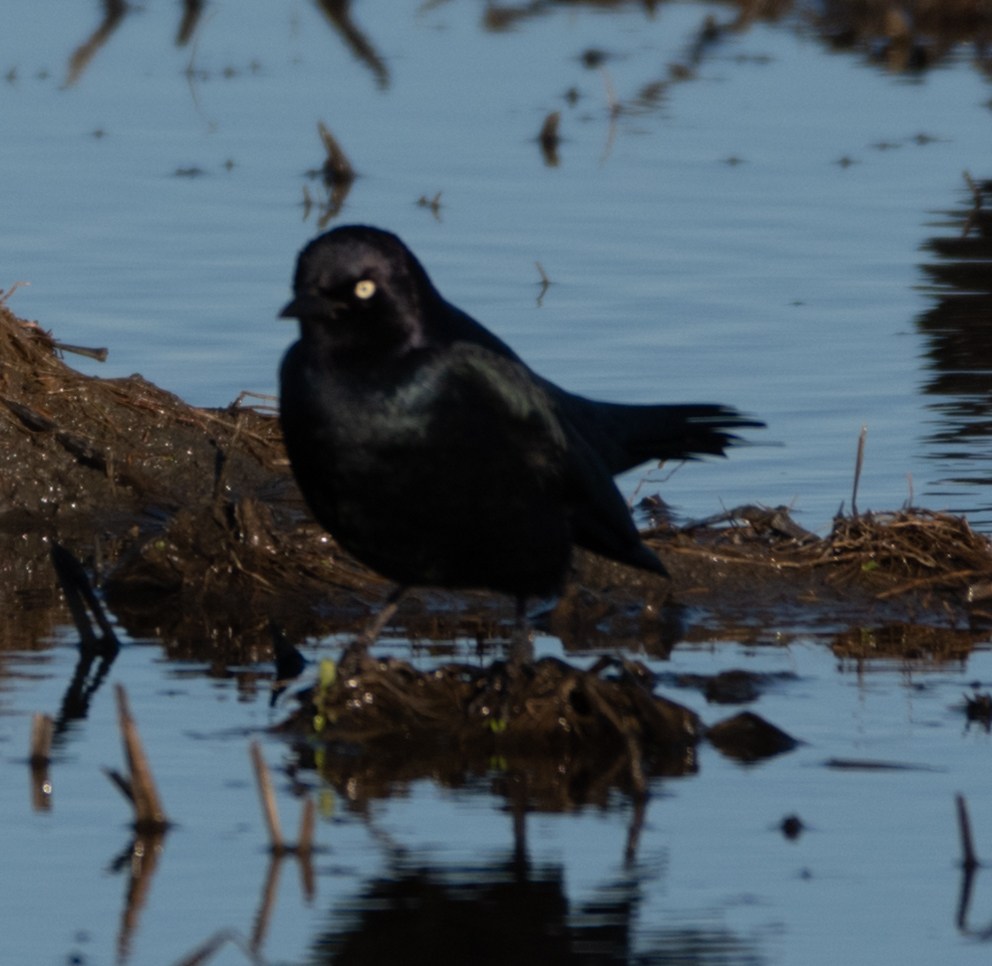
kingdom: Animalia
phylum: Chordata
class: Aves
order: Passeriformes
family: Icteridae
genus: Euphagus
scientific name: Euphagus cyanocephalus
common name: Brewer's blackbird
